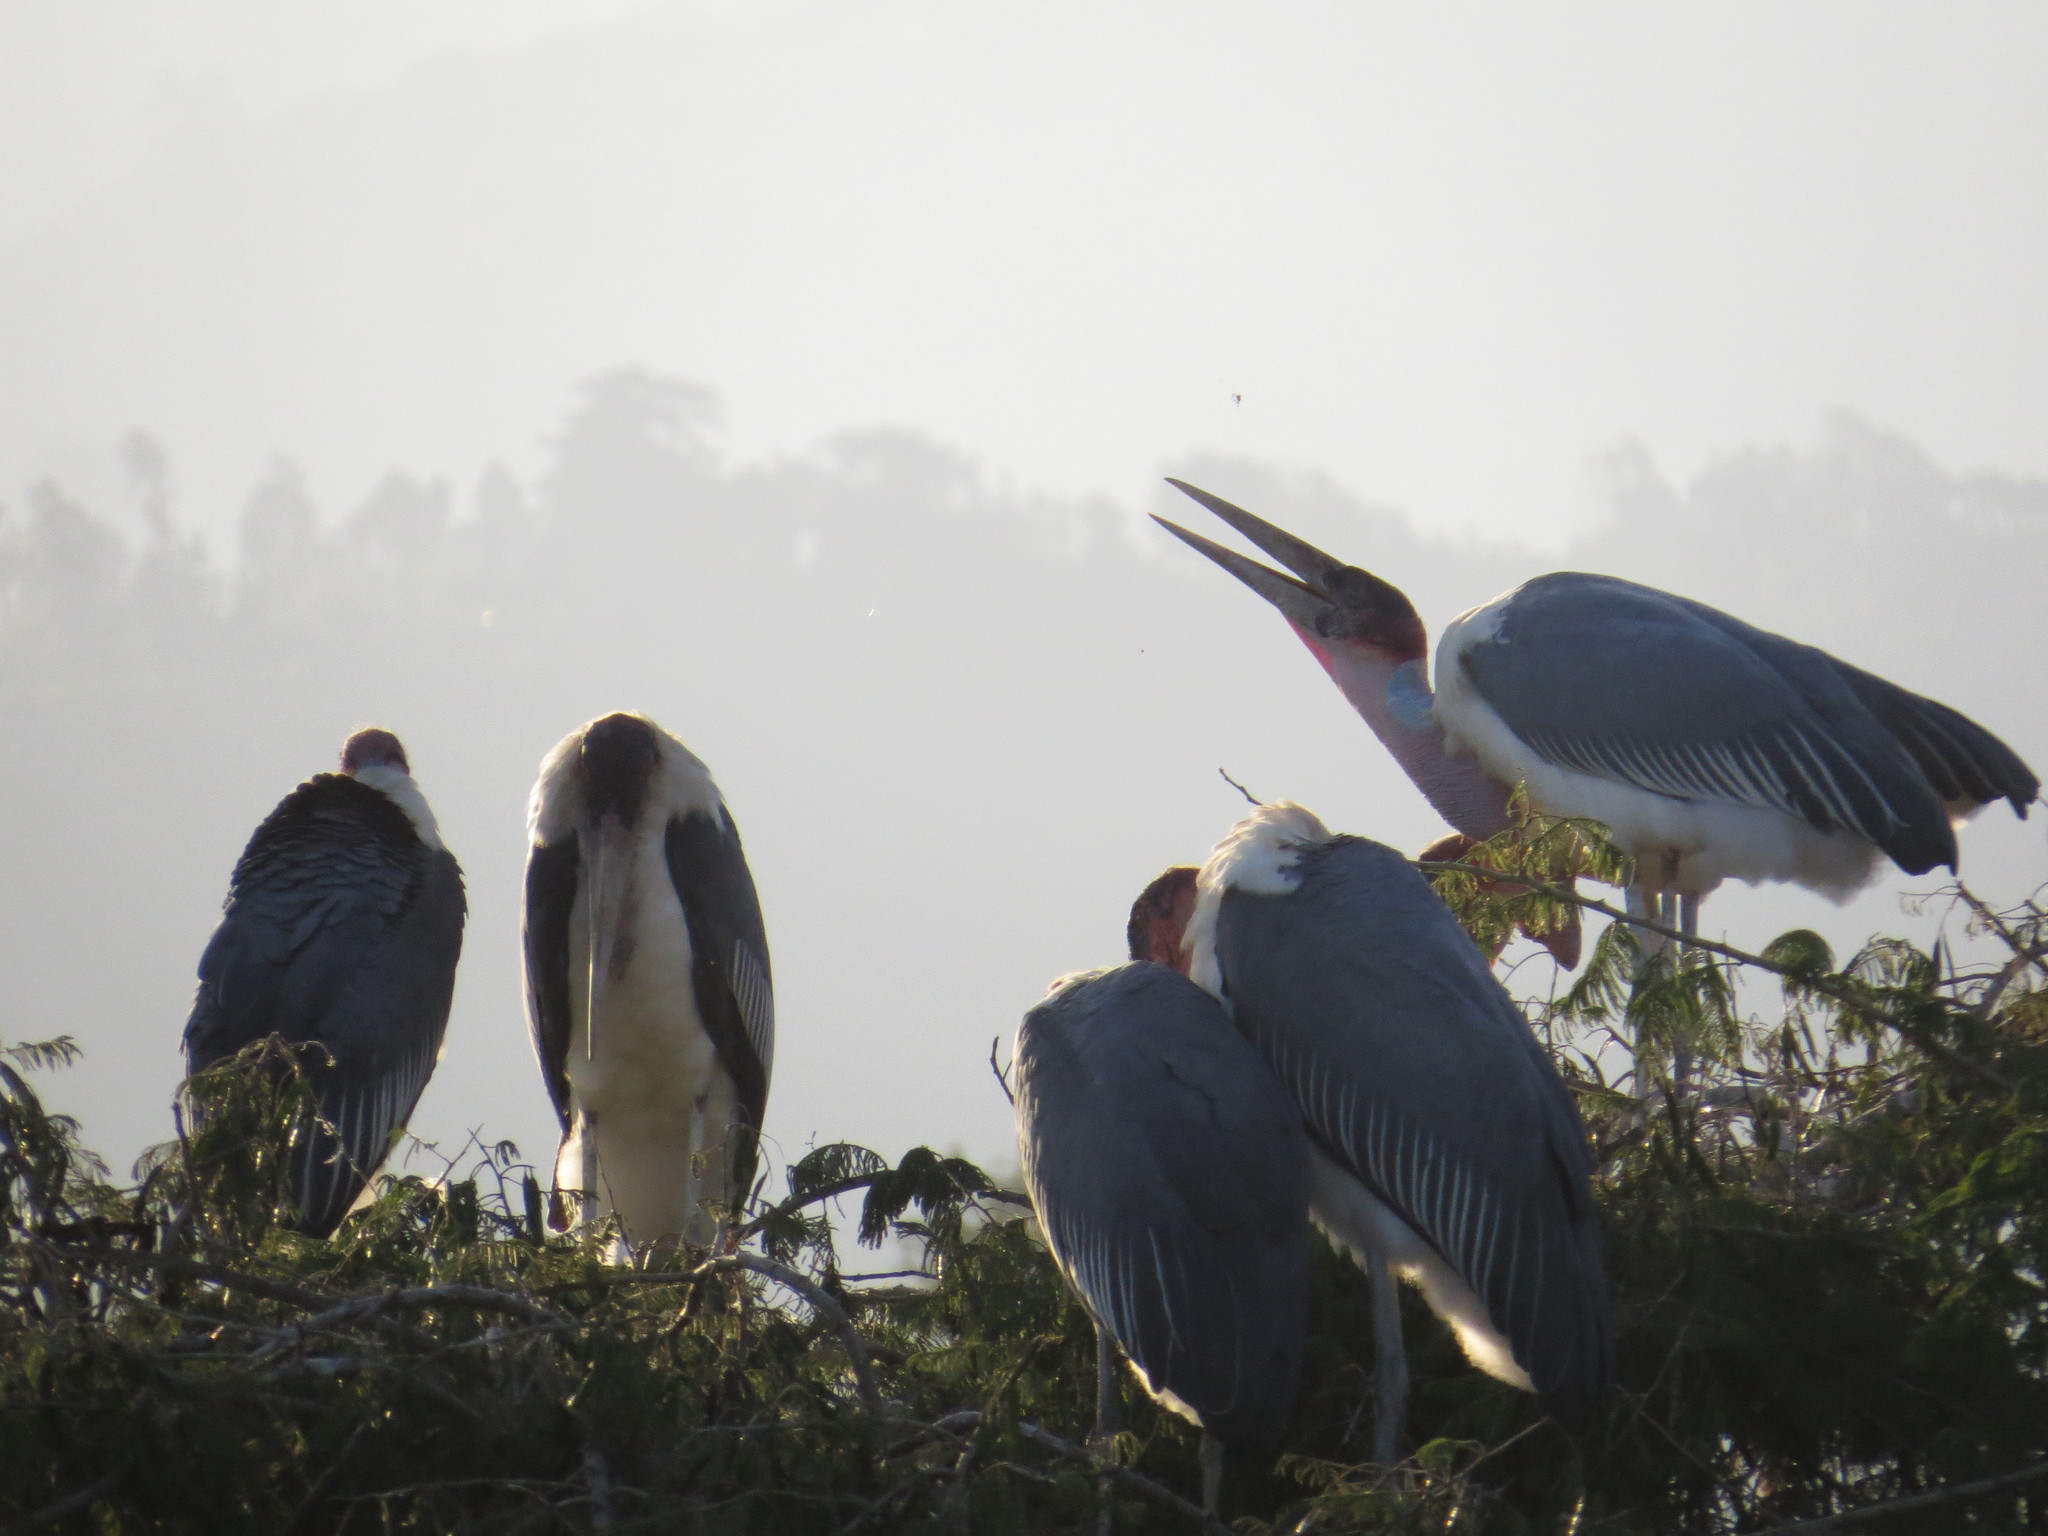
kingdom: Animalia
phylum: Chordata
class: Aves
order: Ciconiiformes
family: Ciconiidae
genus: Leptoptilos
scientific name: Leptoptilos crumenifer
